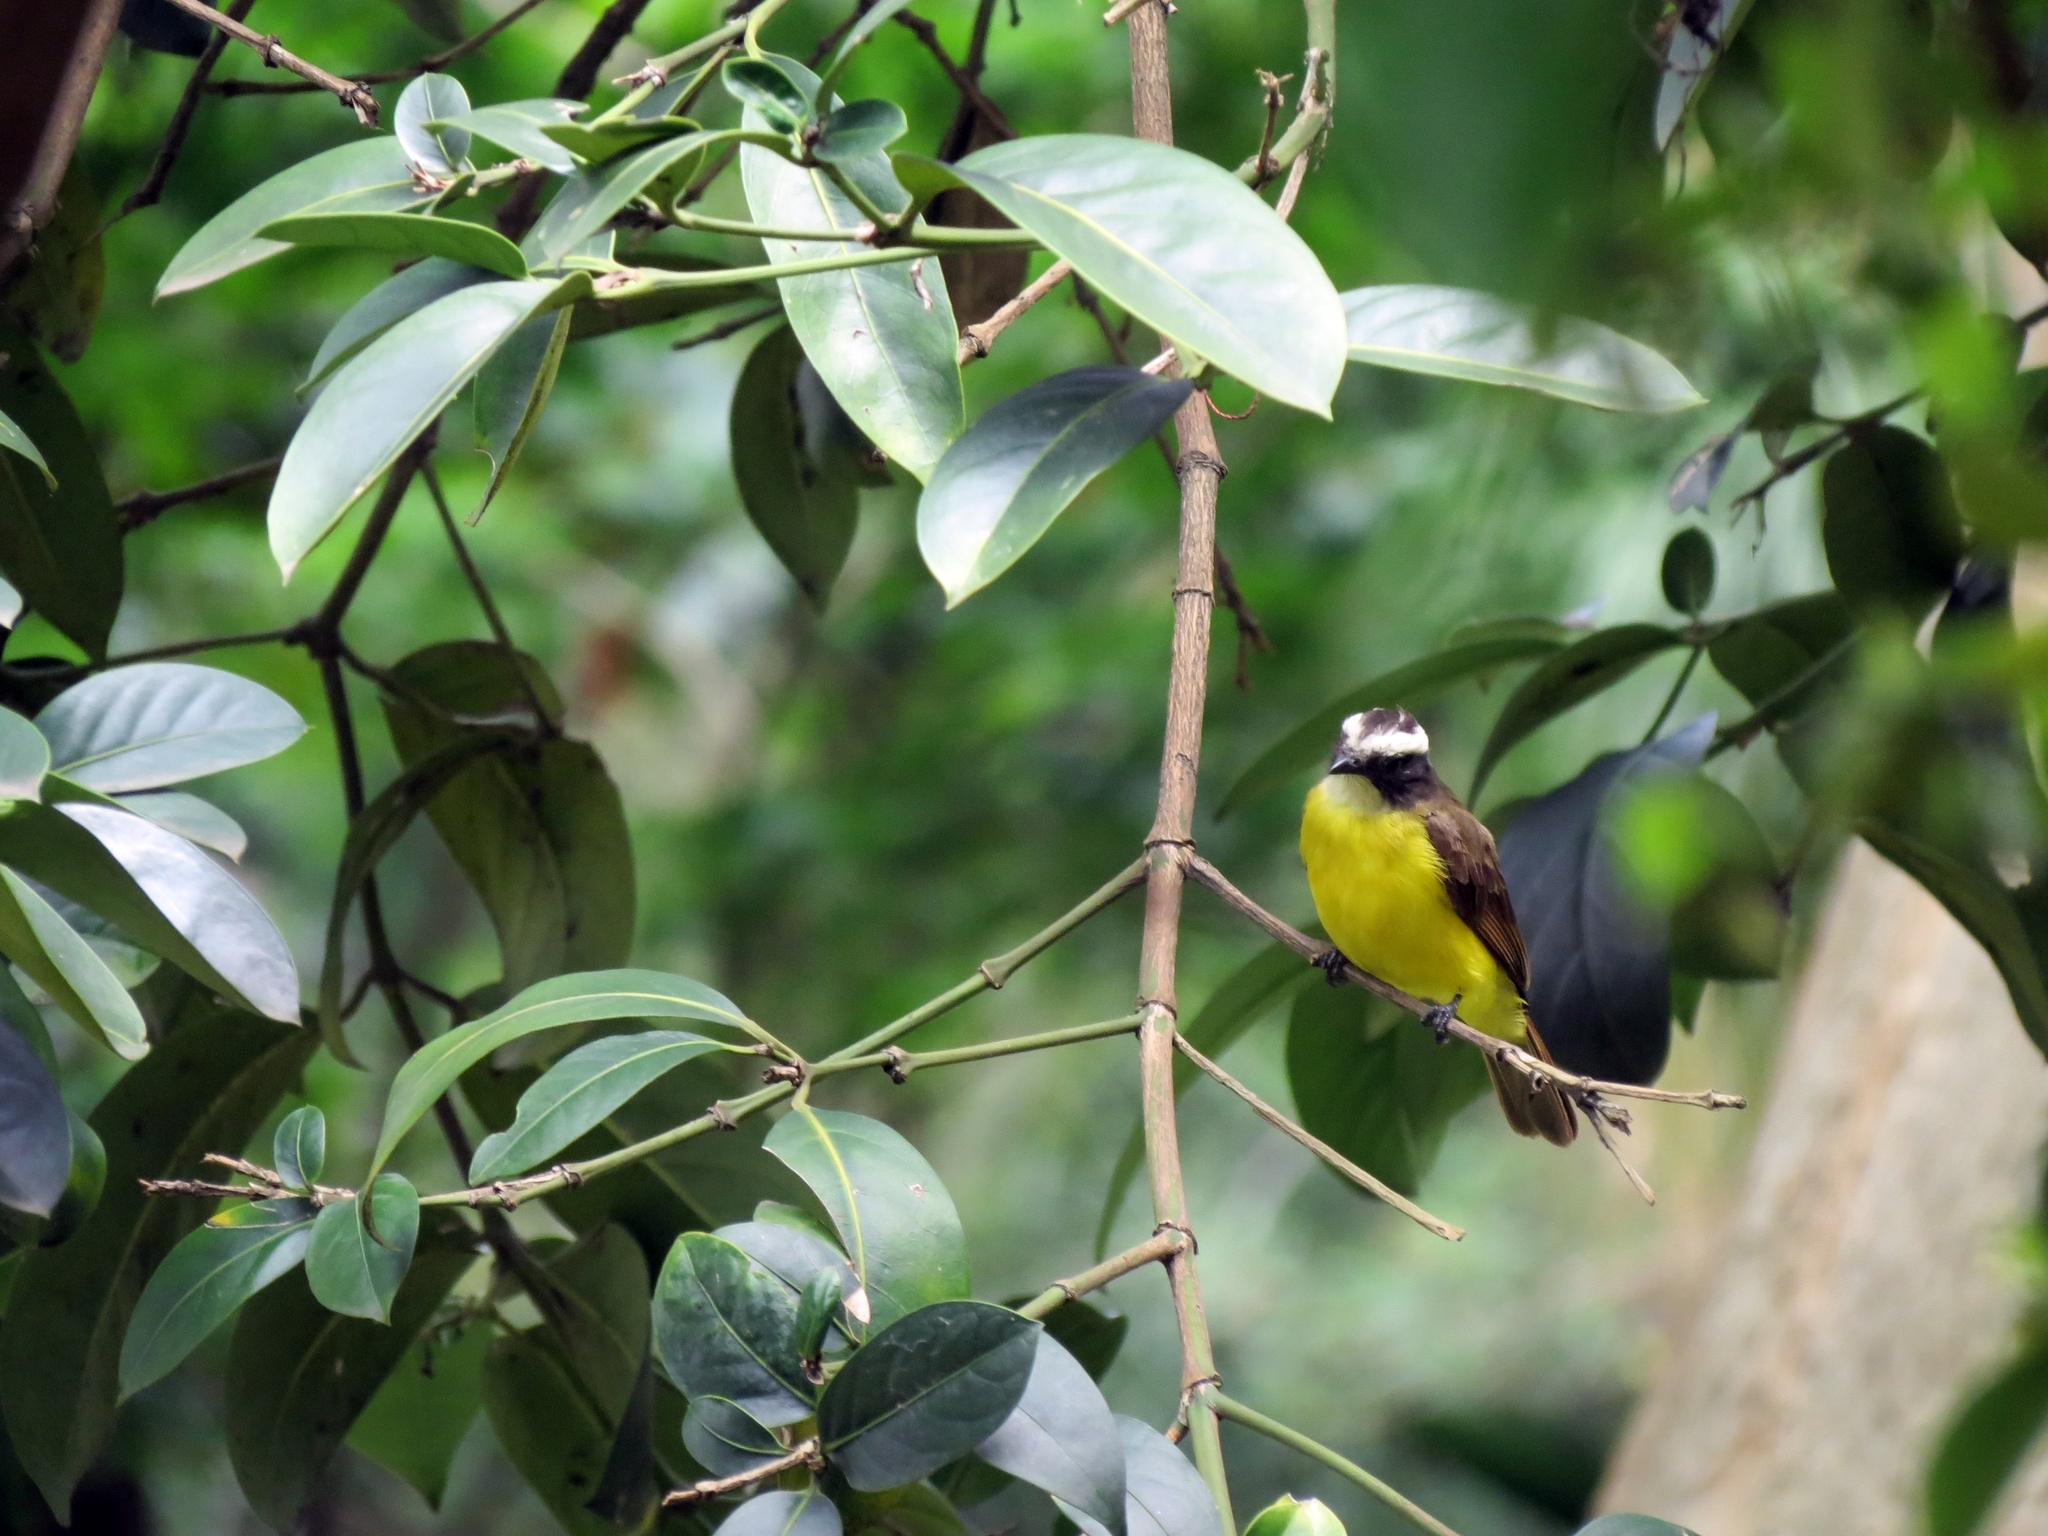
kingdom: Animalia
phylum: Chordata
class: Aves
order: Passeriformes
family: Tyrannidae
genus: Myiozetetes
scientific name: Myiozetetes cayanensis
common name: Rusty-margined flycatcher
